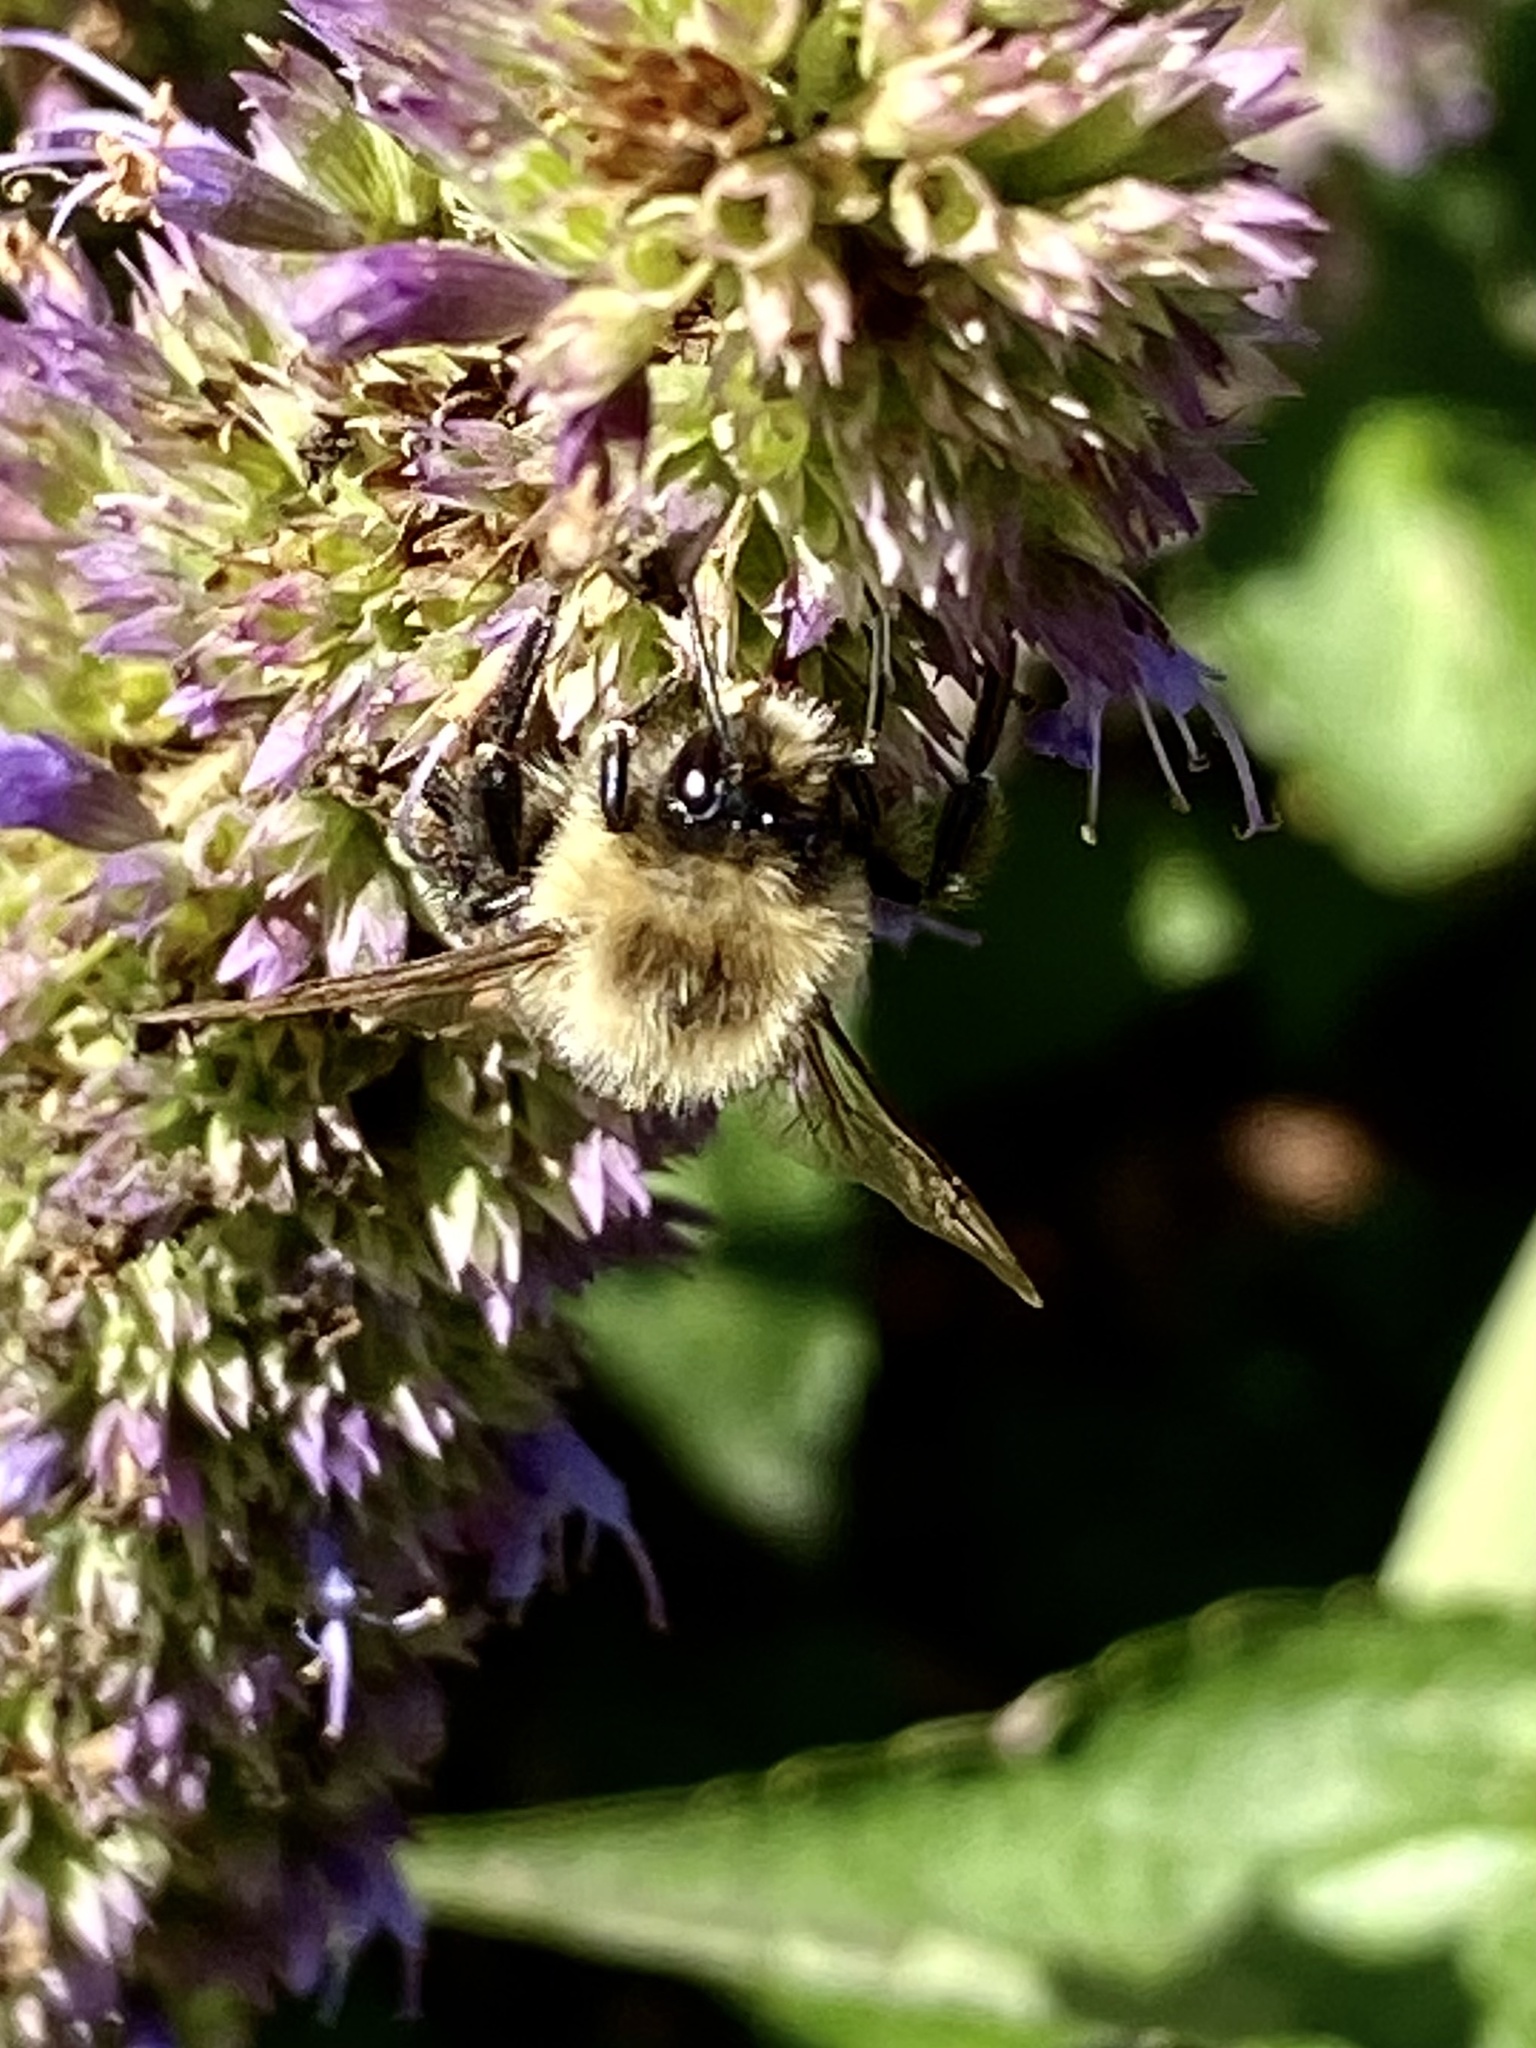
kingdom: Animalia
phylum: Arthropoda
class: Insecta
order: Hymenoptera
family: Apidae
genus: Bombus
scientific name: Bombus impatiens
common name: Common eastern bumble bee
